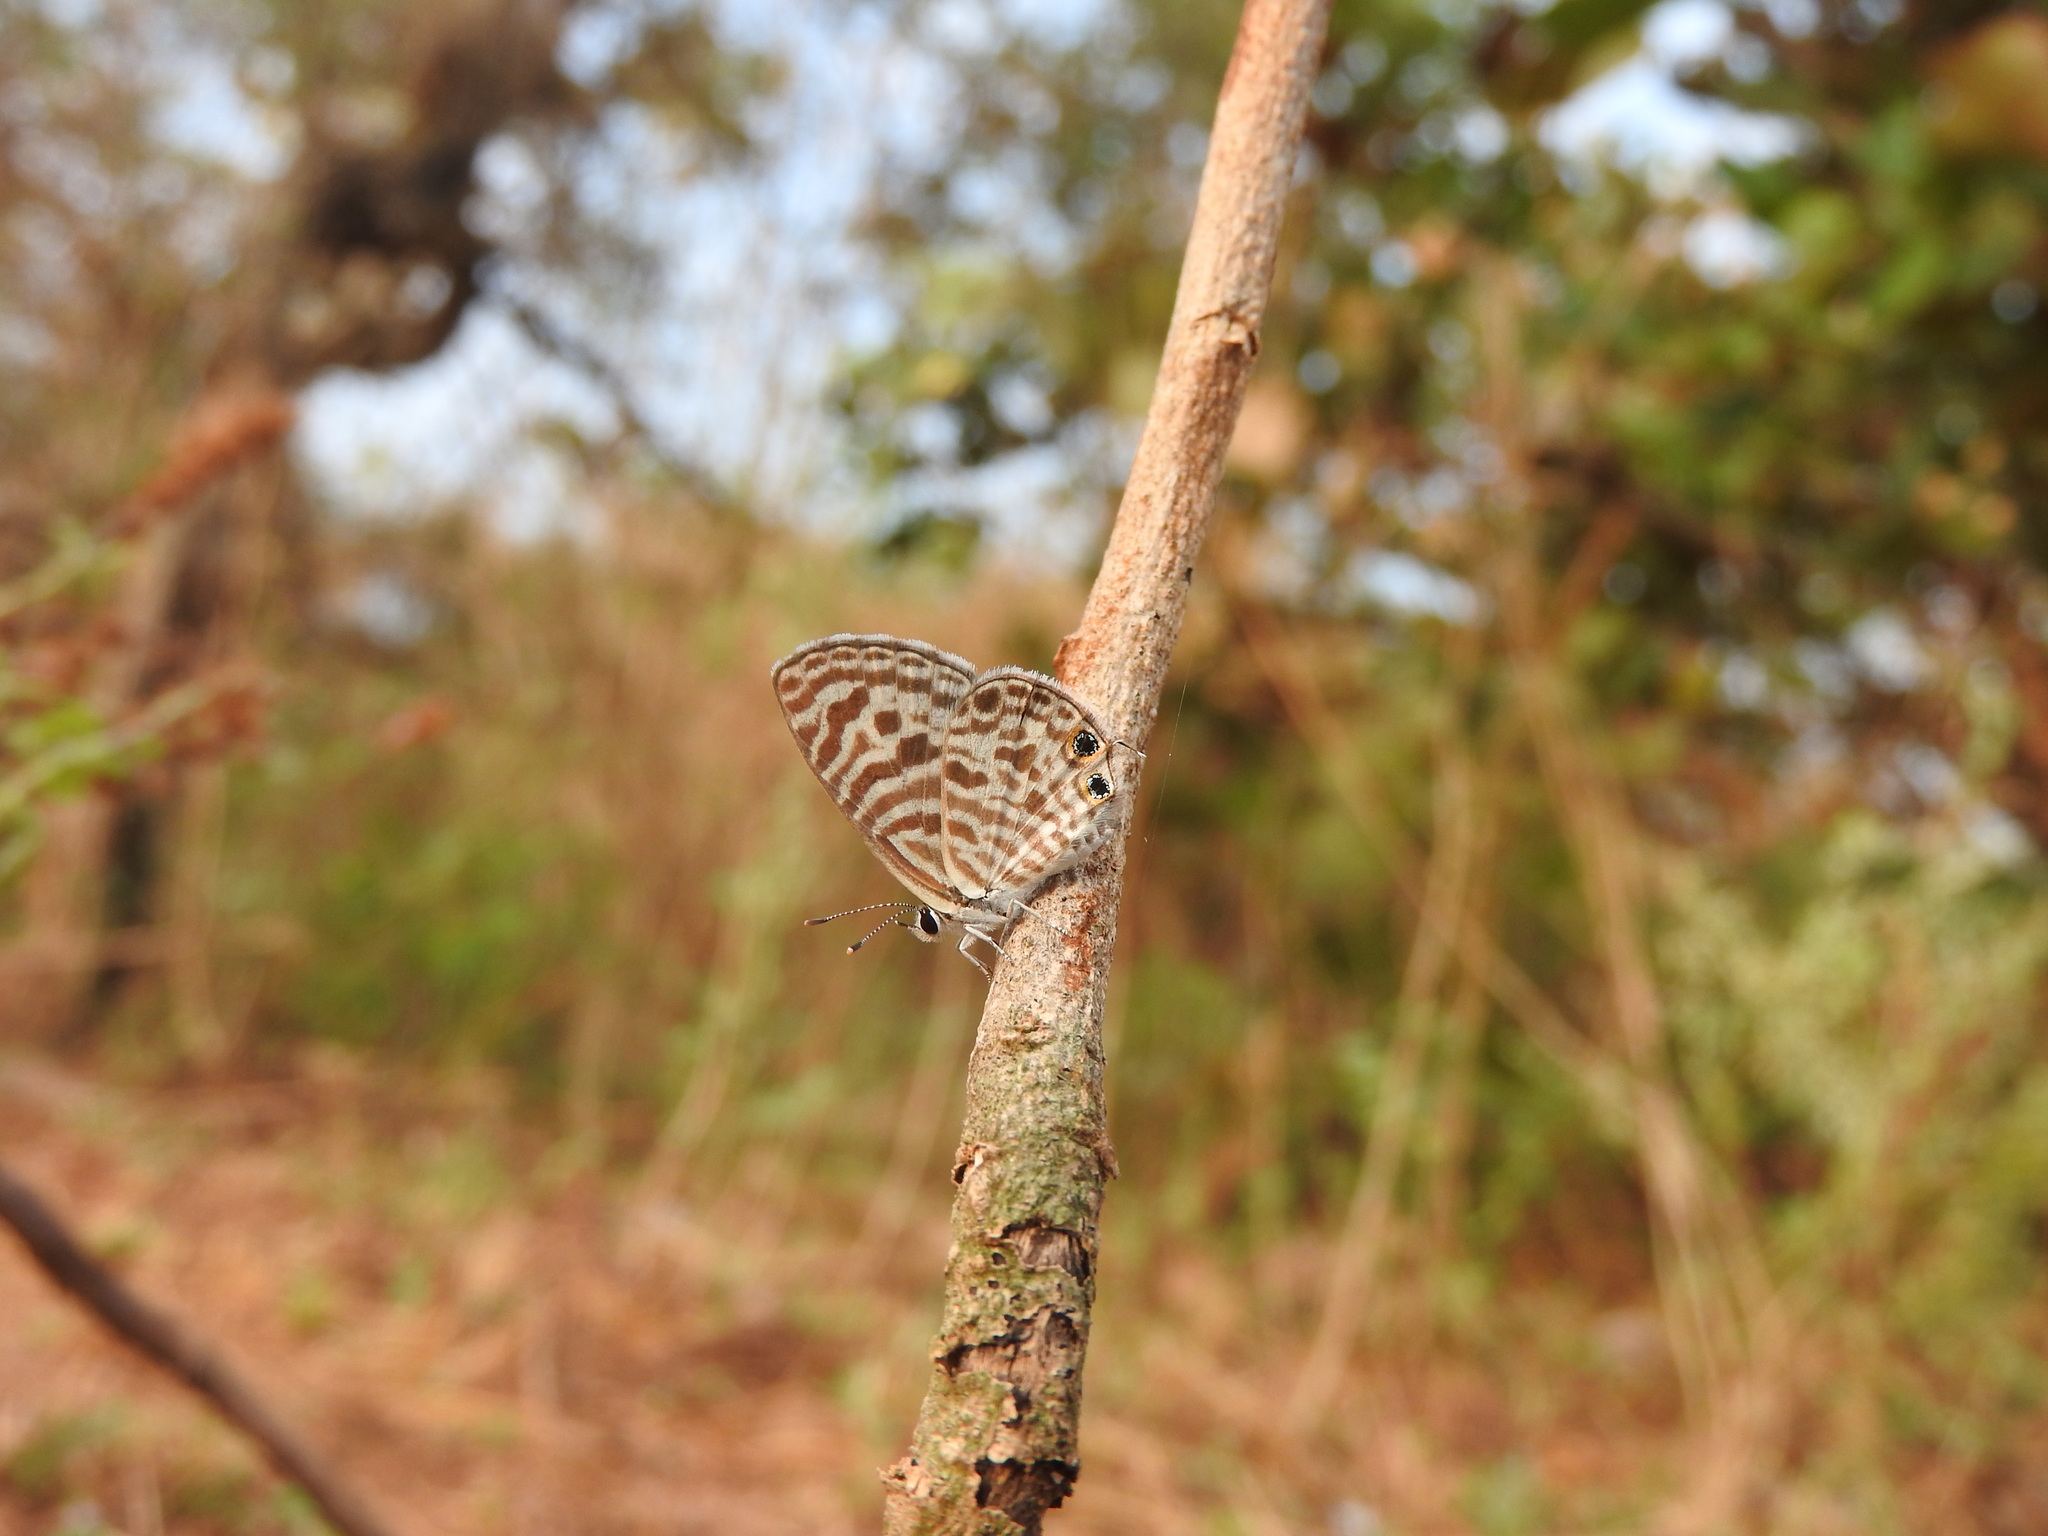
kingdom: Animalia
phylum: Arthropoda
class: Insecta
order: Lepidoptera
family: Lycaenidae
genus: Leptotes
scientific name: Leptotes plinius
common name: Zebra blue
